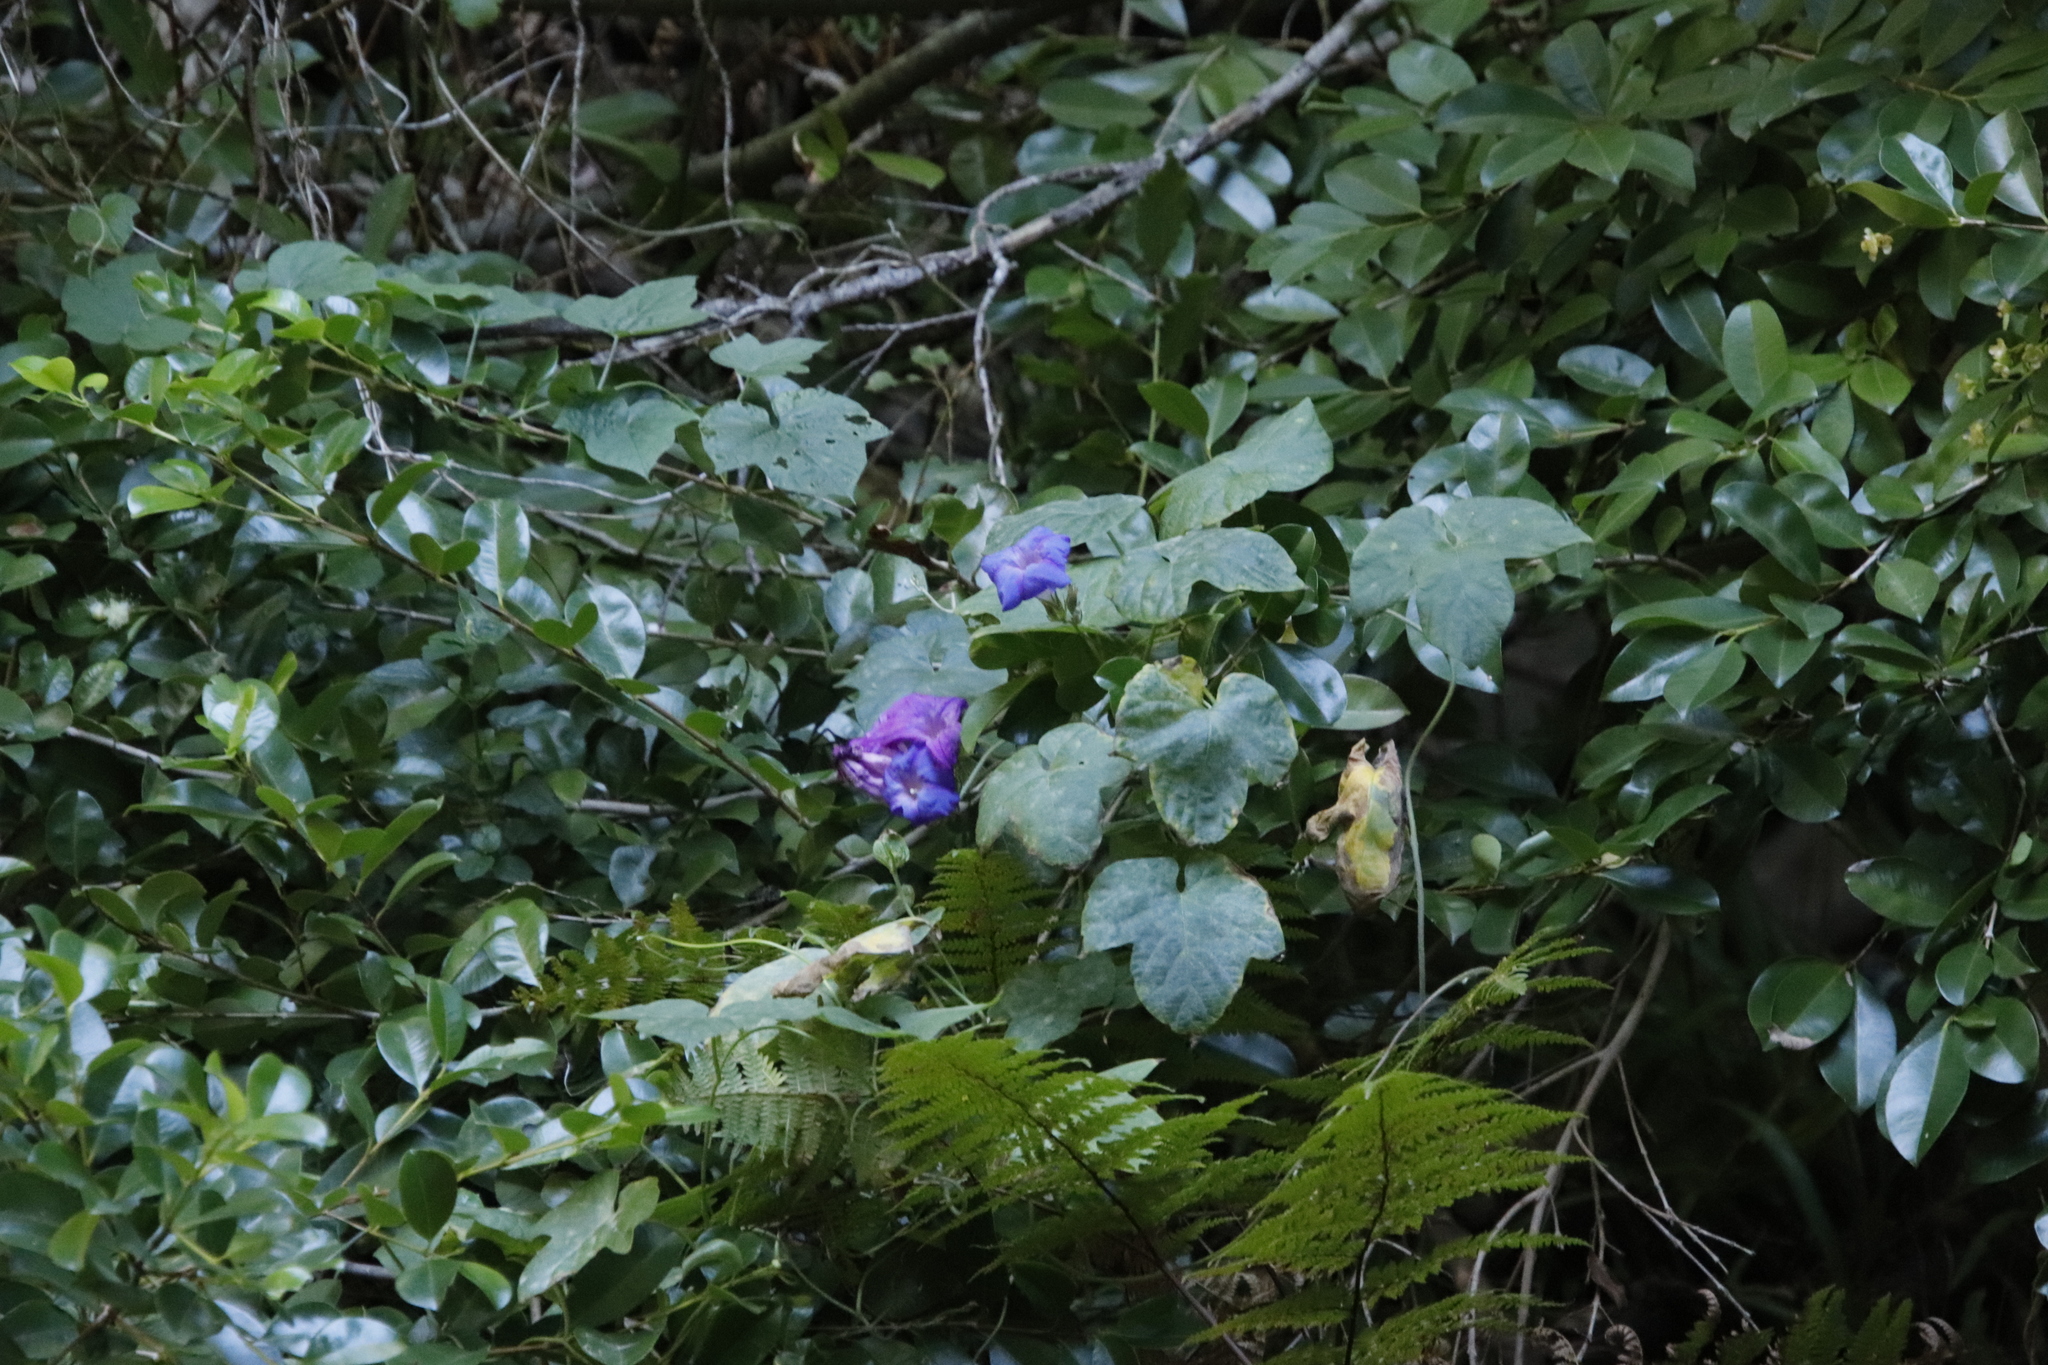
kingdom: Plantae
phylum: Tracheophyta
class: Magnoliopsida
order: Solanales
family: Convolvulaceae
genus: Ipomoea
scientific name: Ipomoea indica
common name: Blue dawnflower
